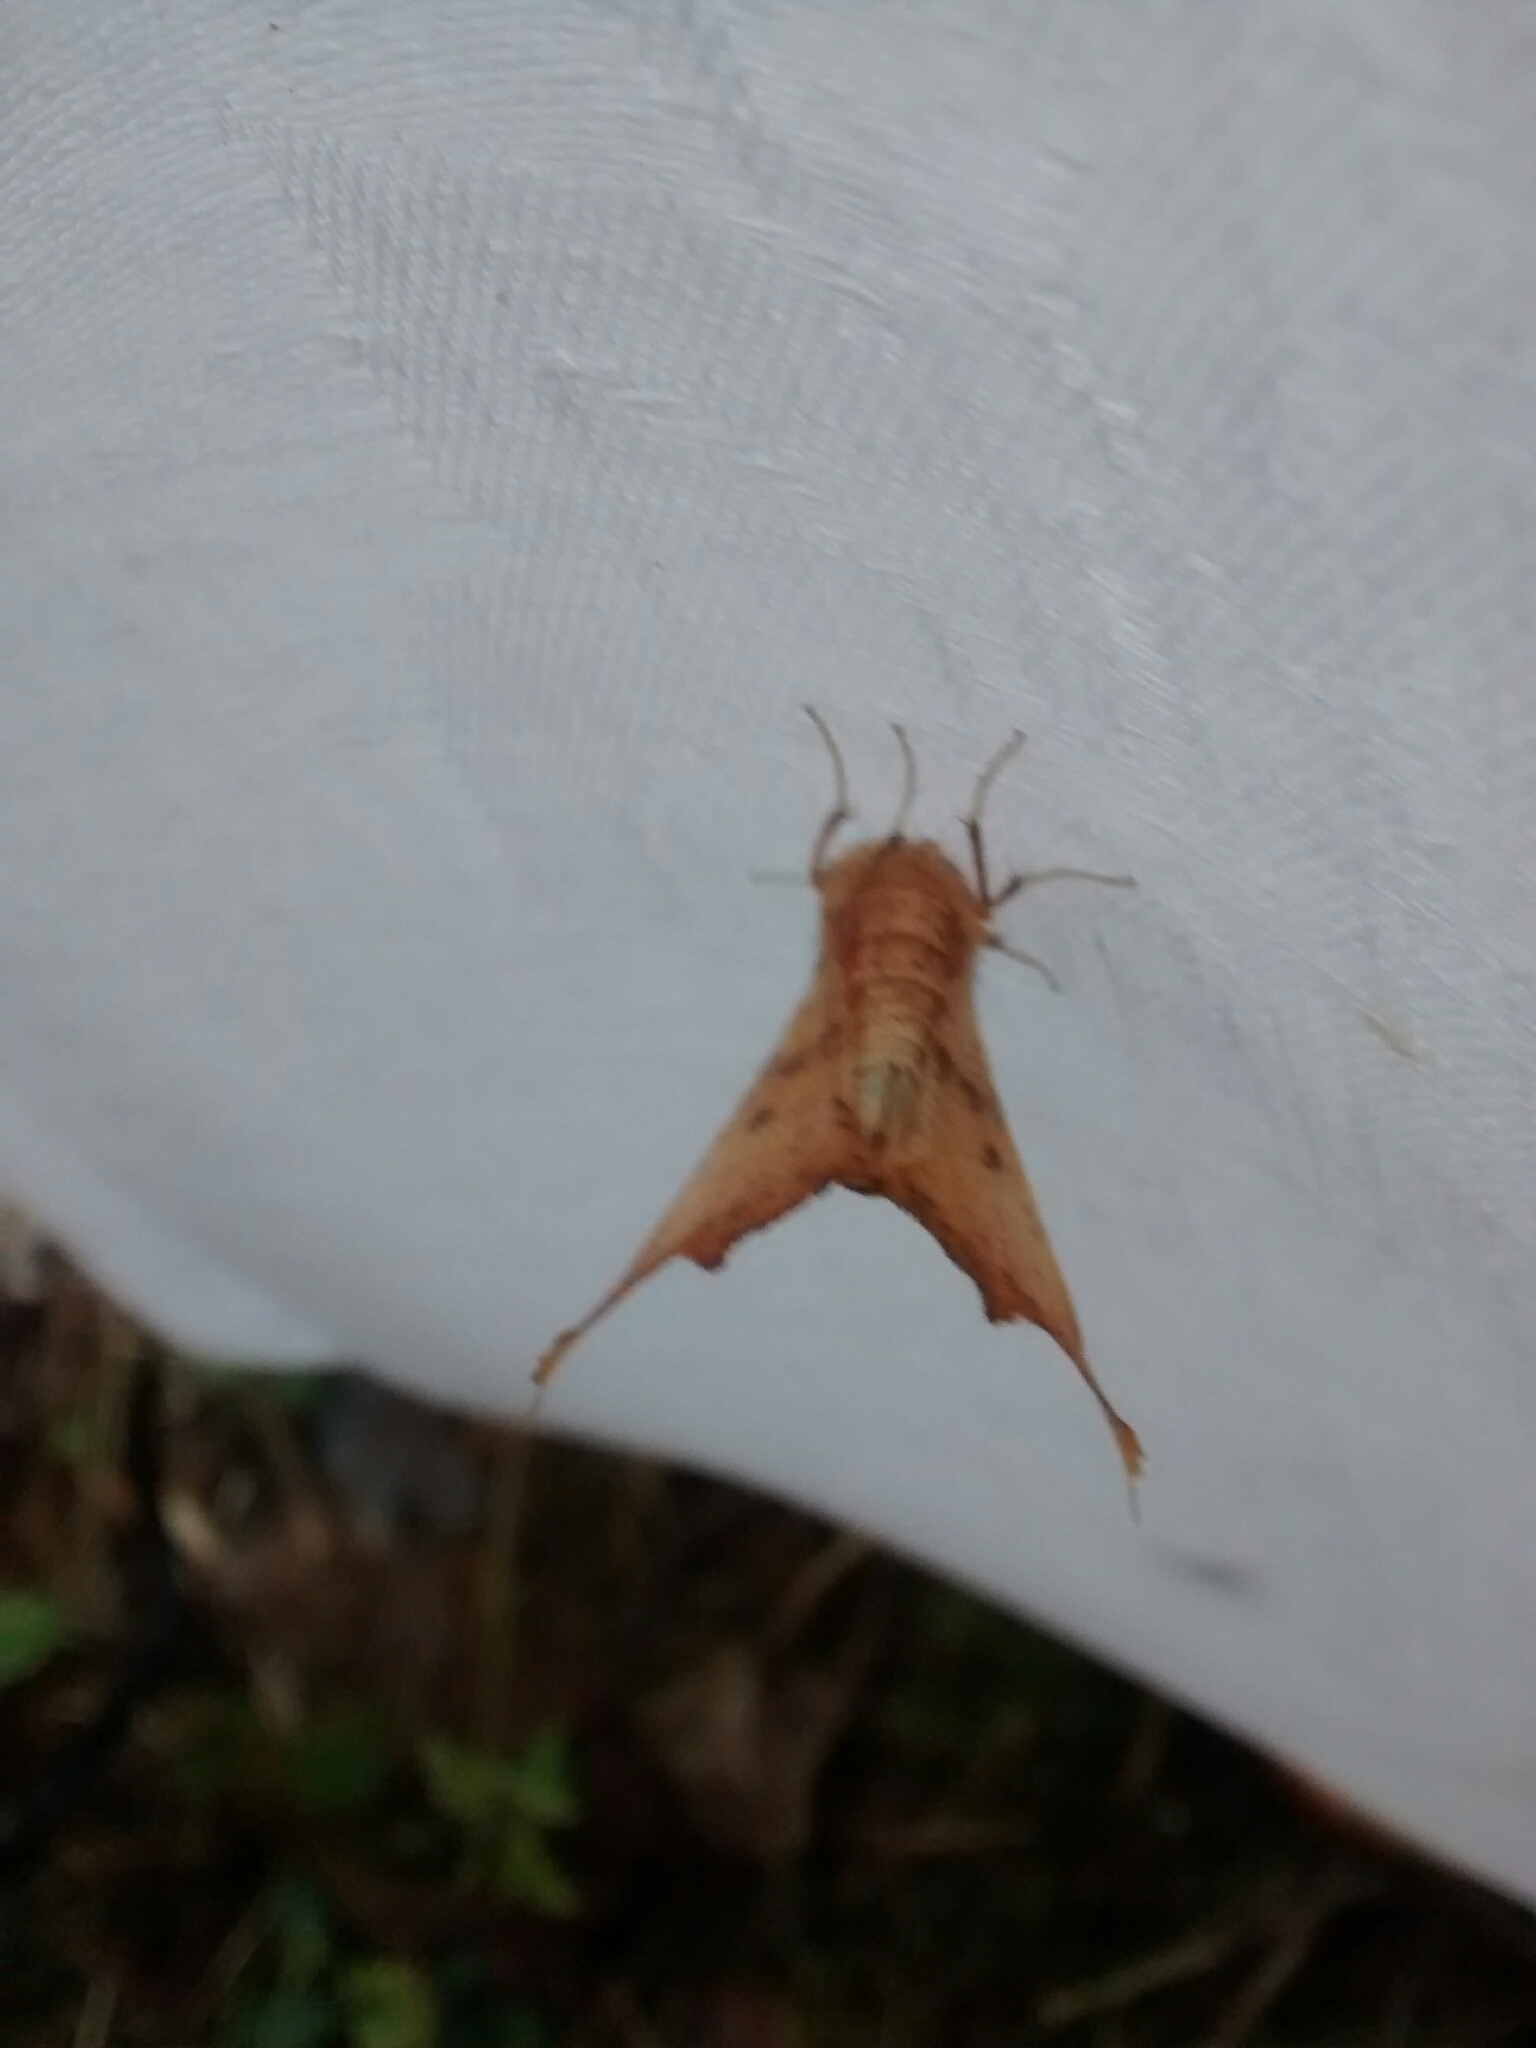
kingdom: Animalia
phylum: Arthropoda
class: Insecta
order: Lepidoptera
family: Geometridae
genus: Ennomos
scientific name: Ennomos magnaria
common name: Maple spanworm
